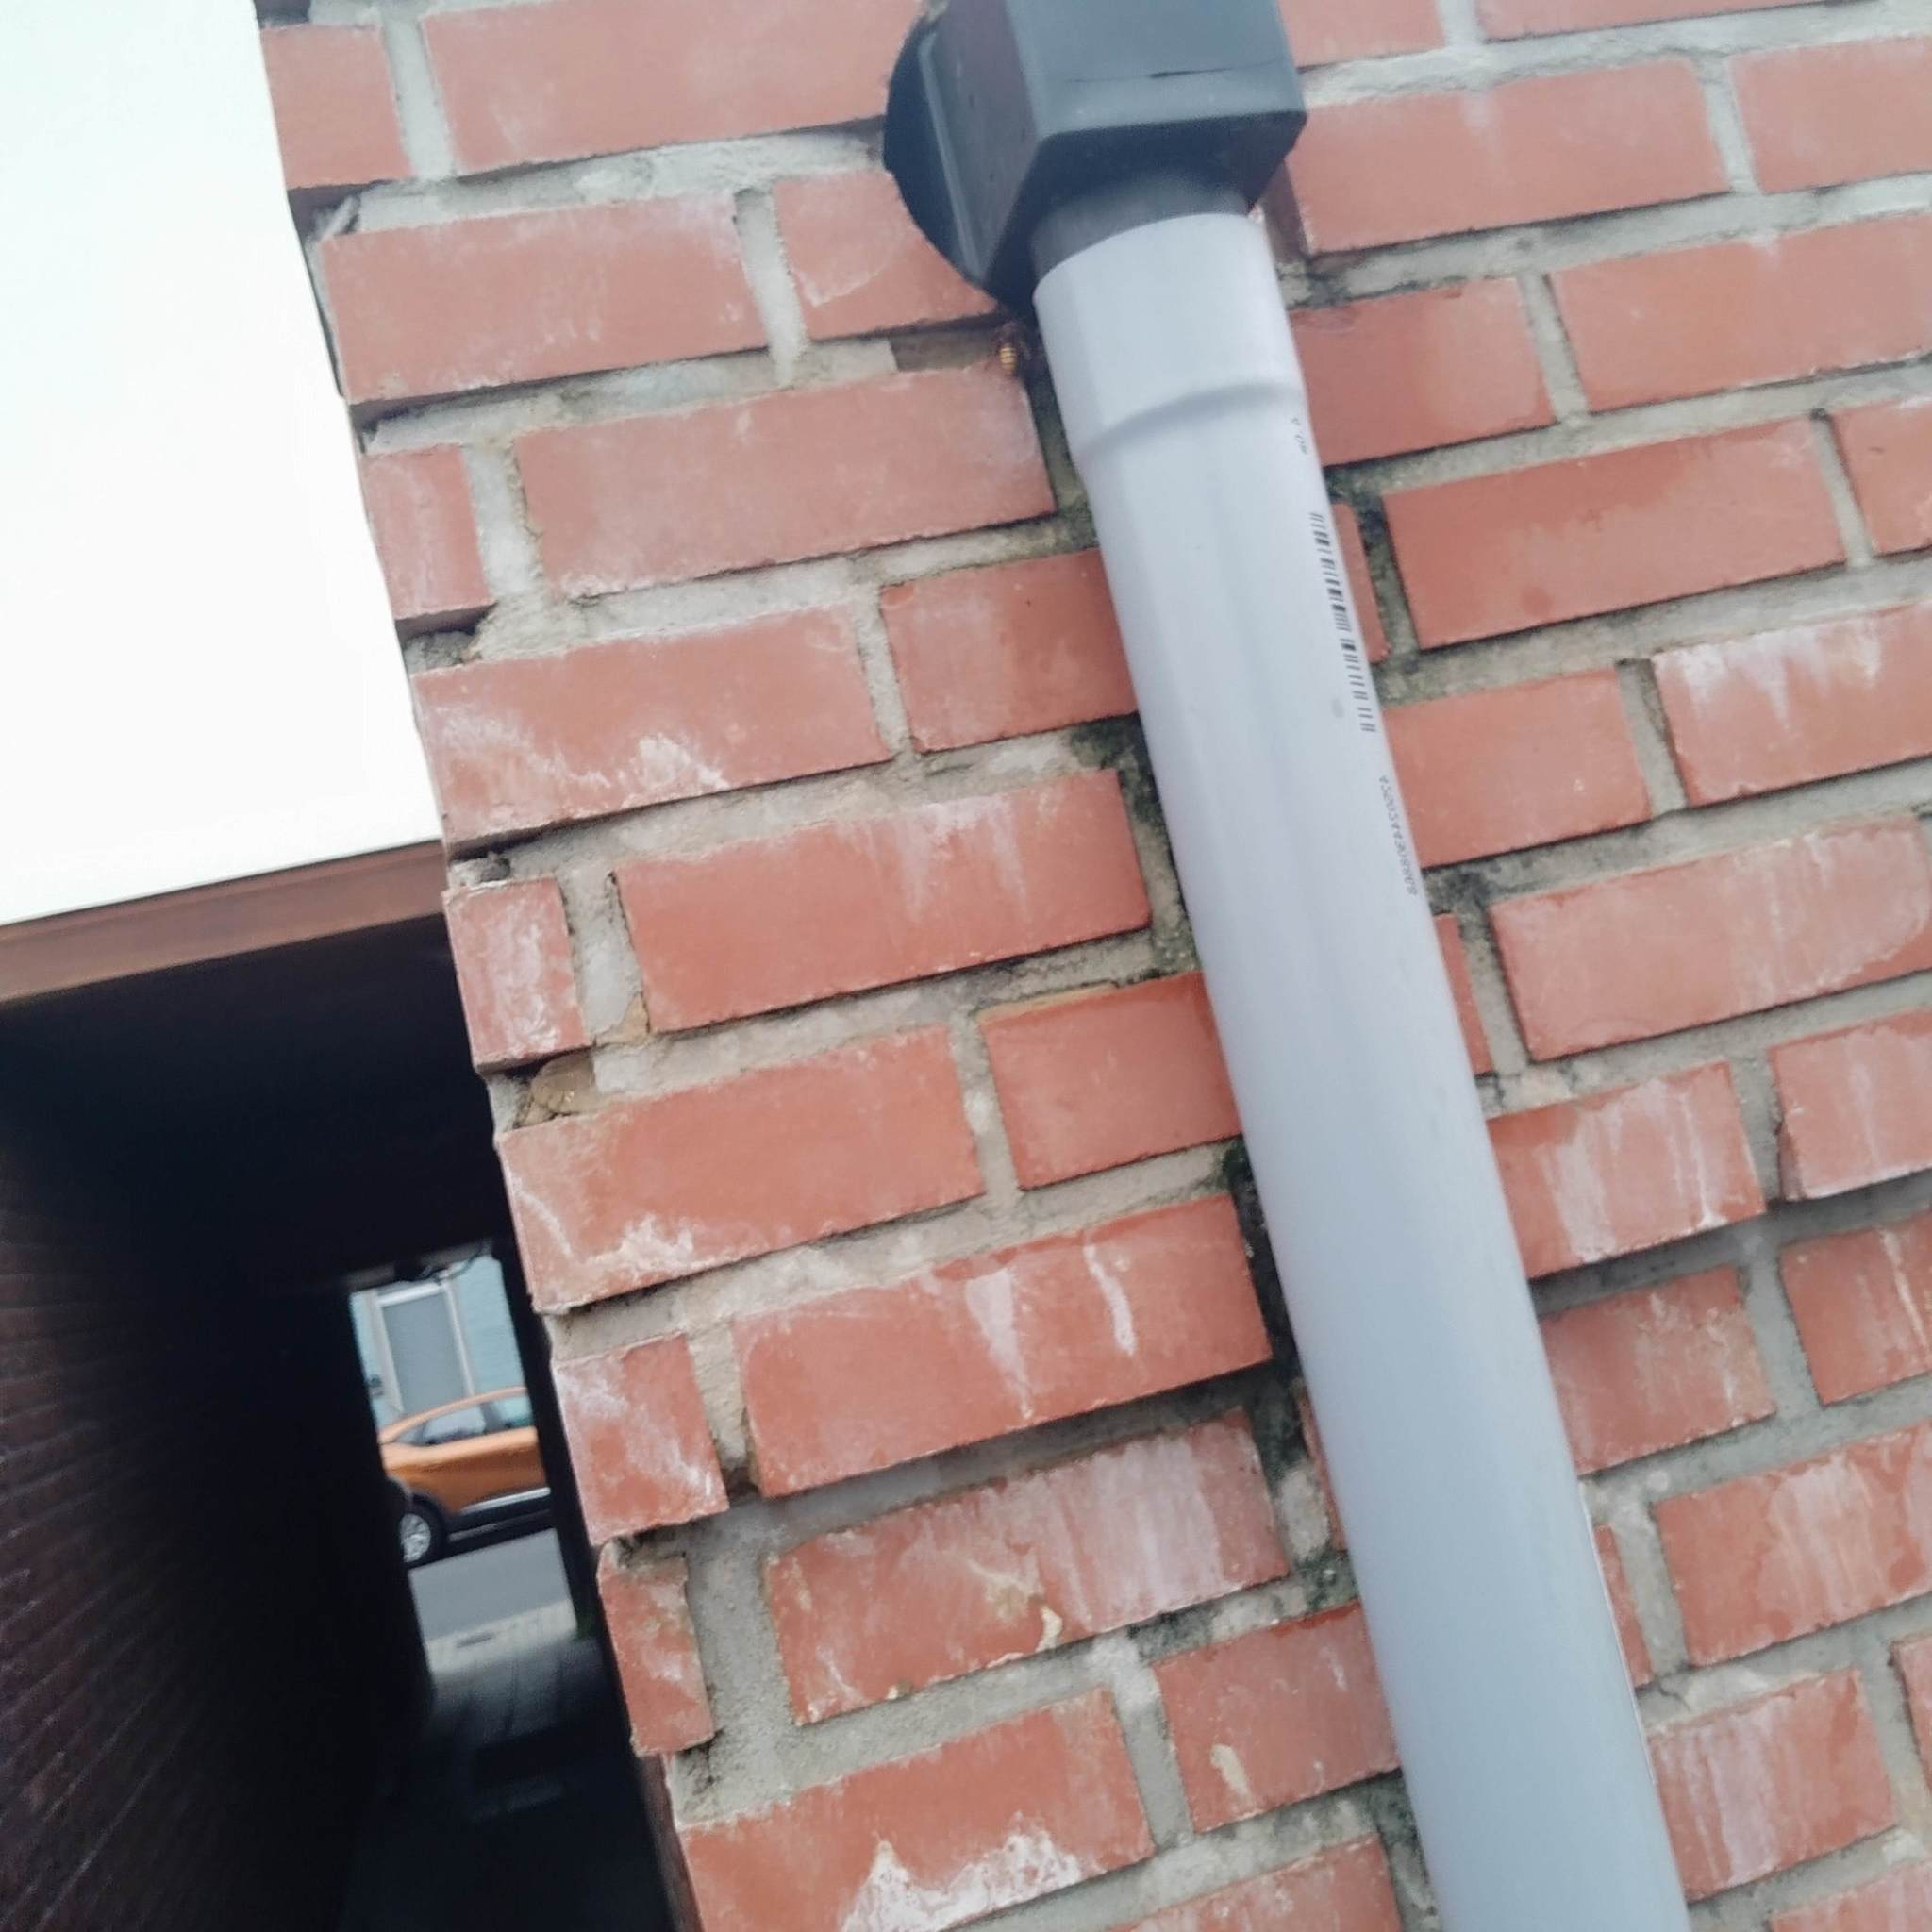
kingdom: Animalia
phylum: Arthropoda
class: Insecta
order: Hymenoptera
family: Vespidae
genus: Vespa
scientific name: Vespa crabro
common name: Hornet
